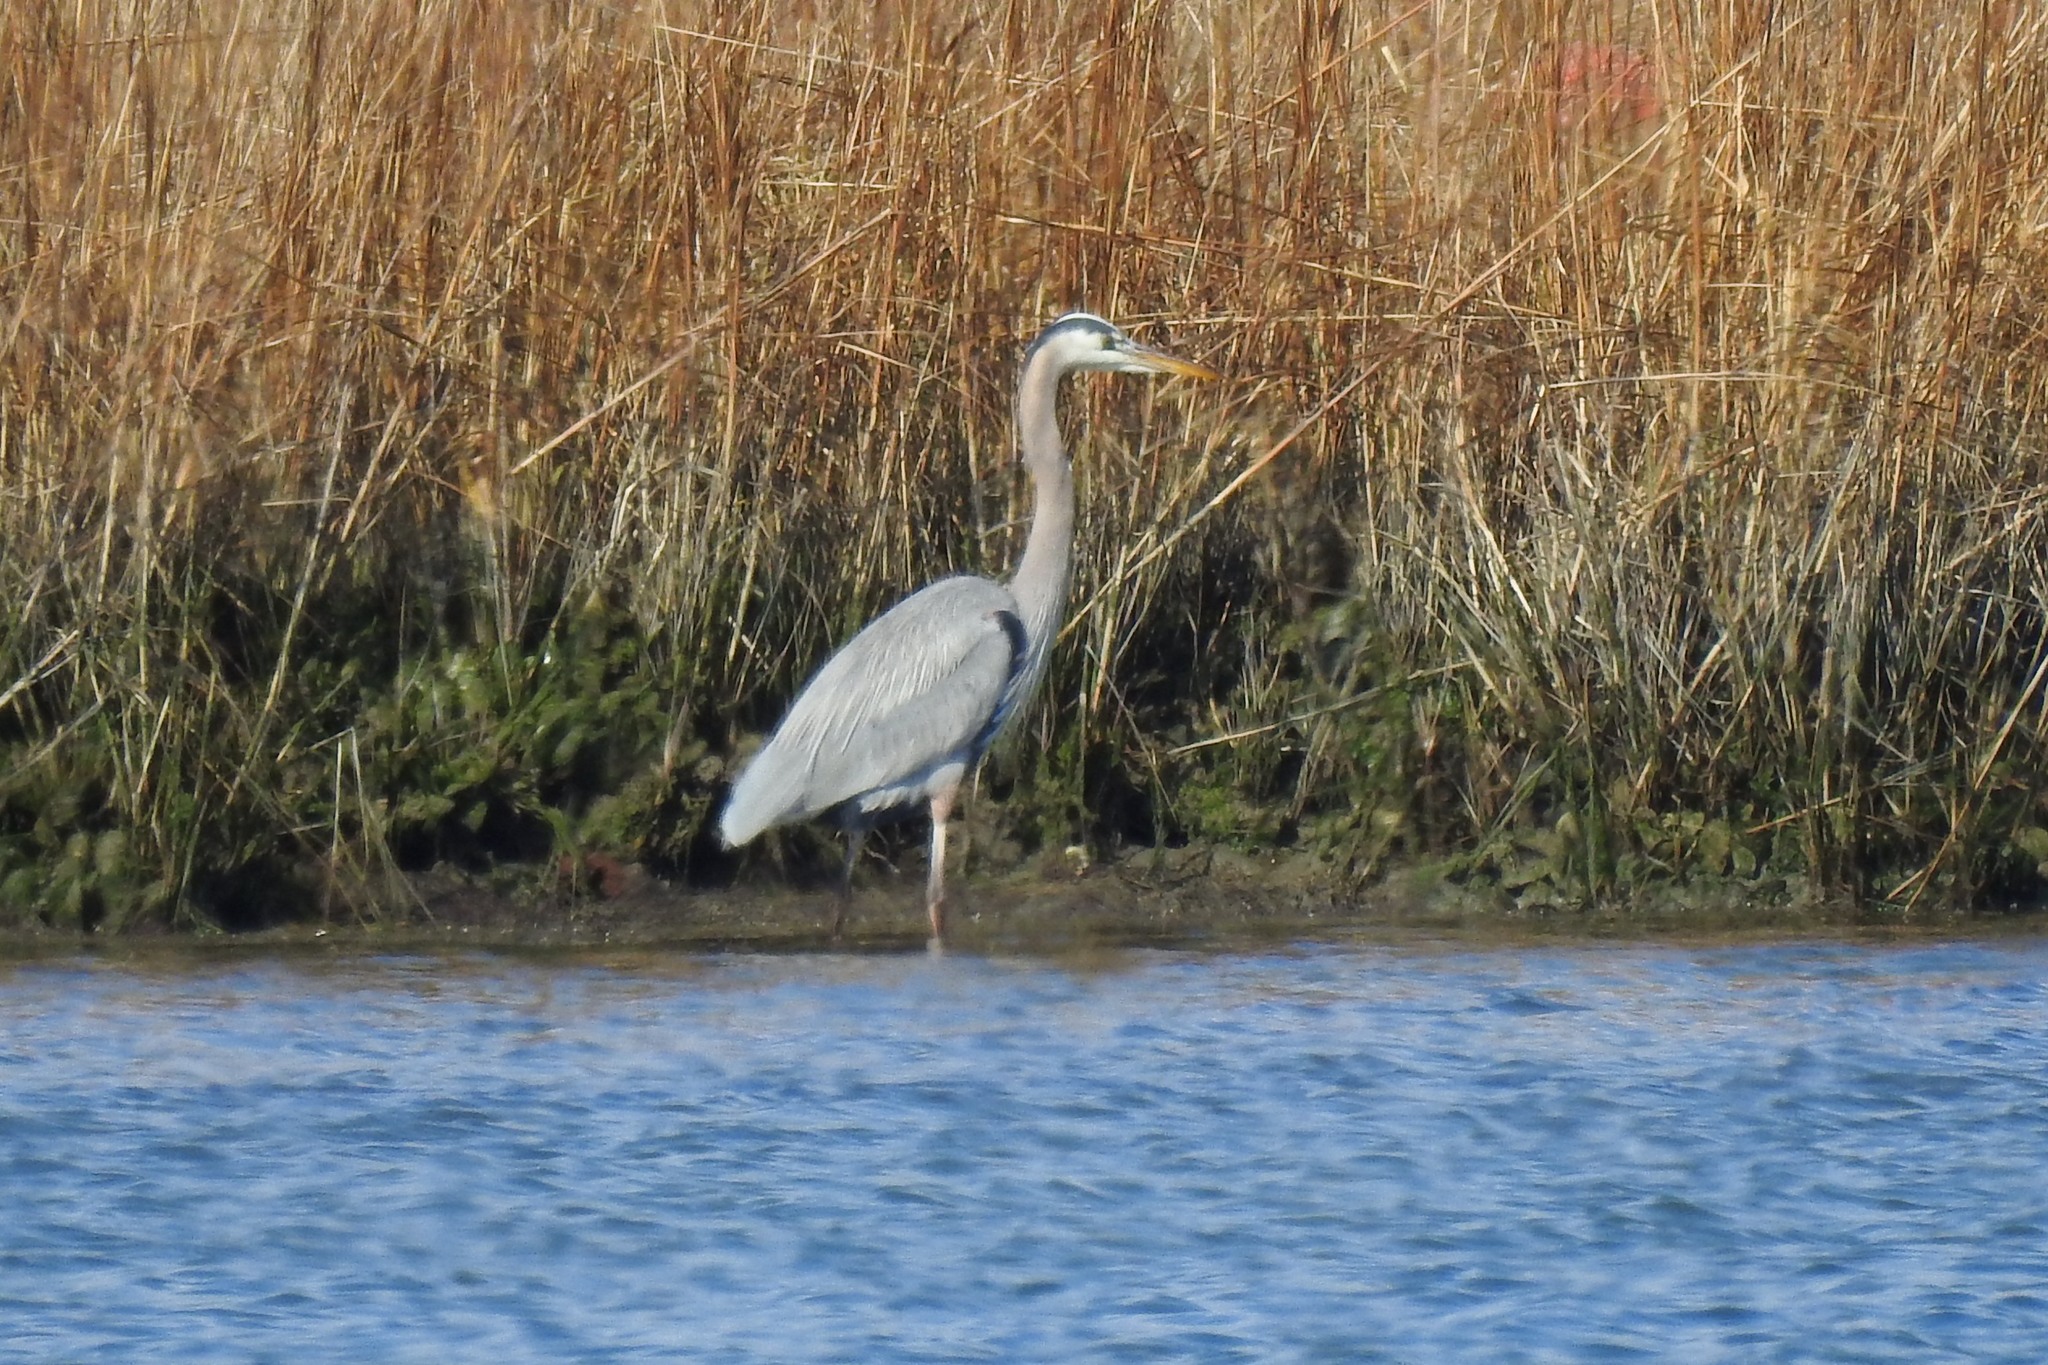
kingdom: Animalia
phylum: Chordata
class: Aves
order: Pelecaniformes
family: Ardeidae
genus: Ardea
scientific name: Ardea herodias
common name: Great blue heron
